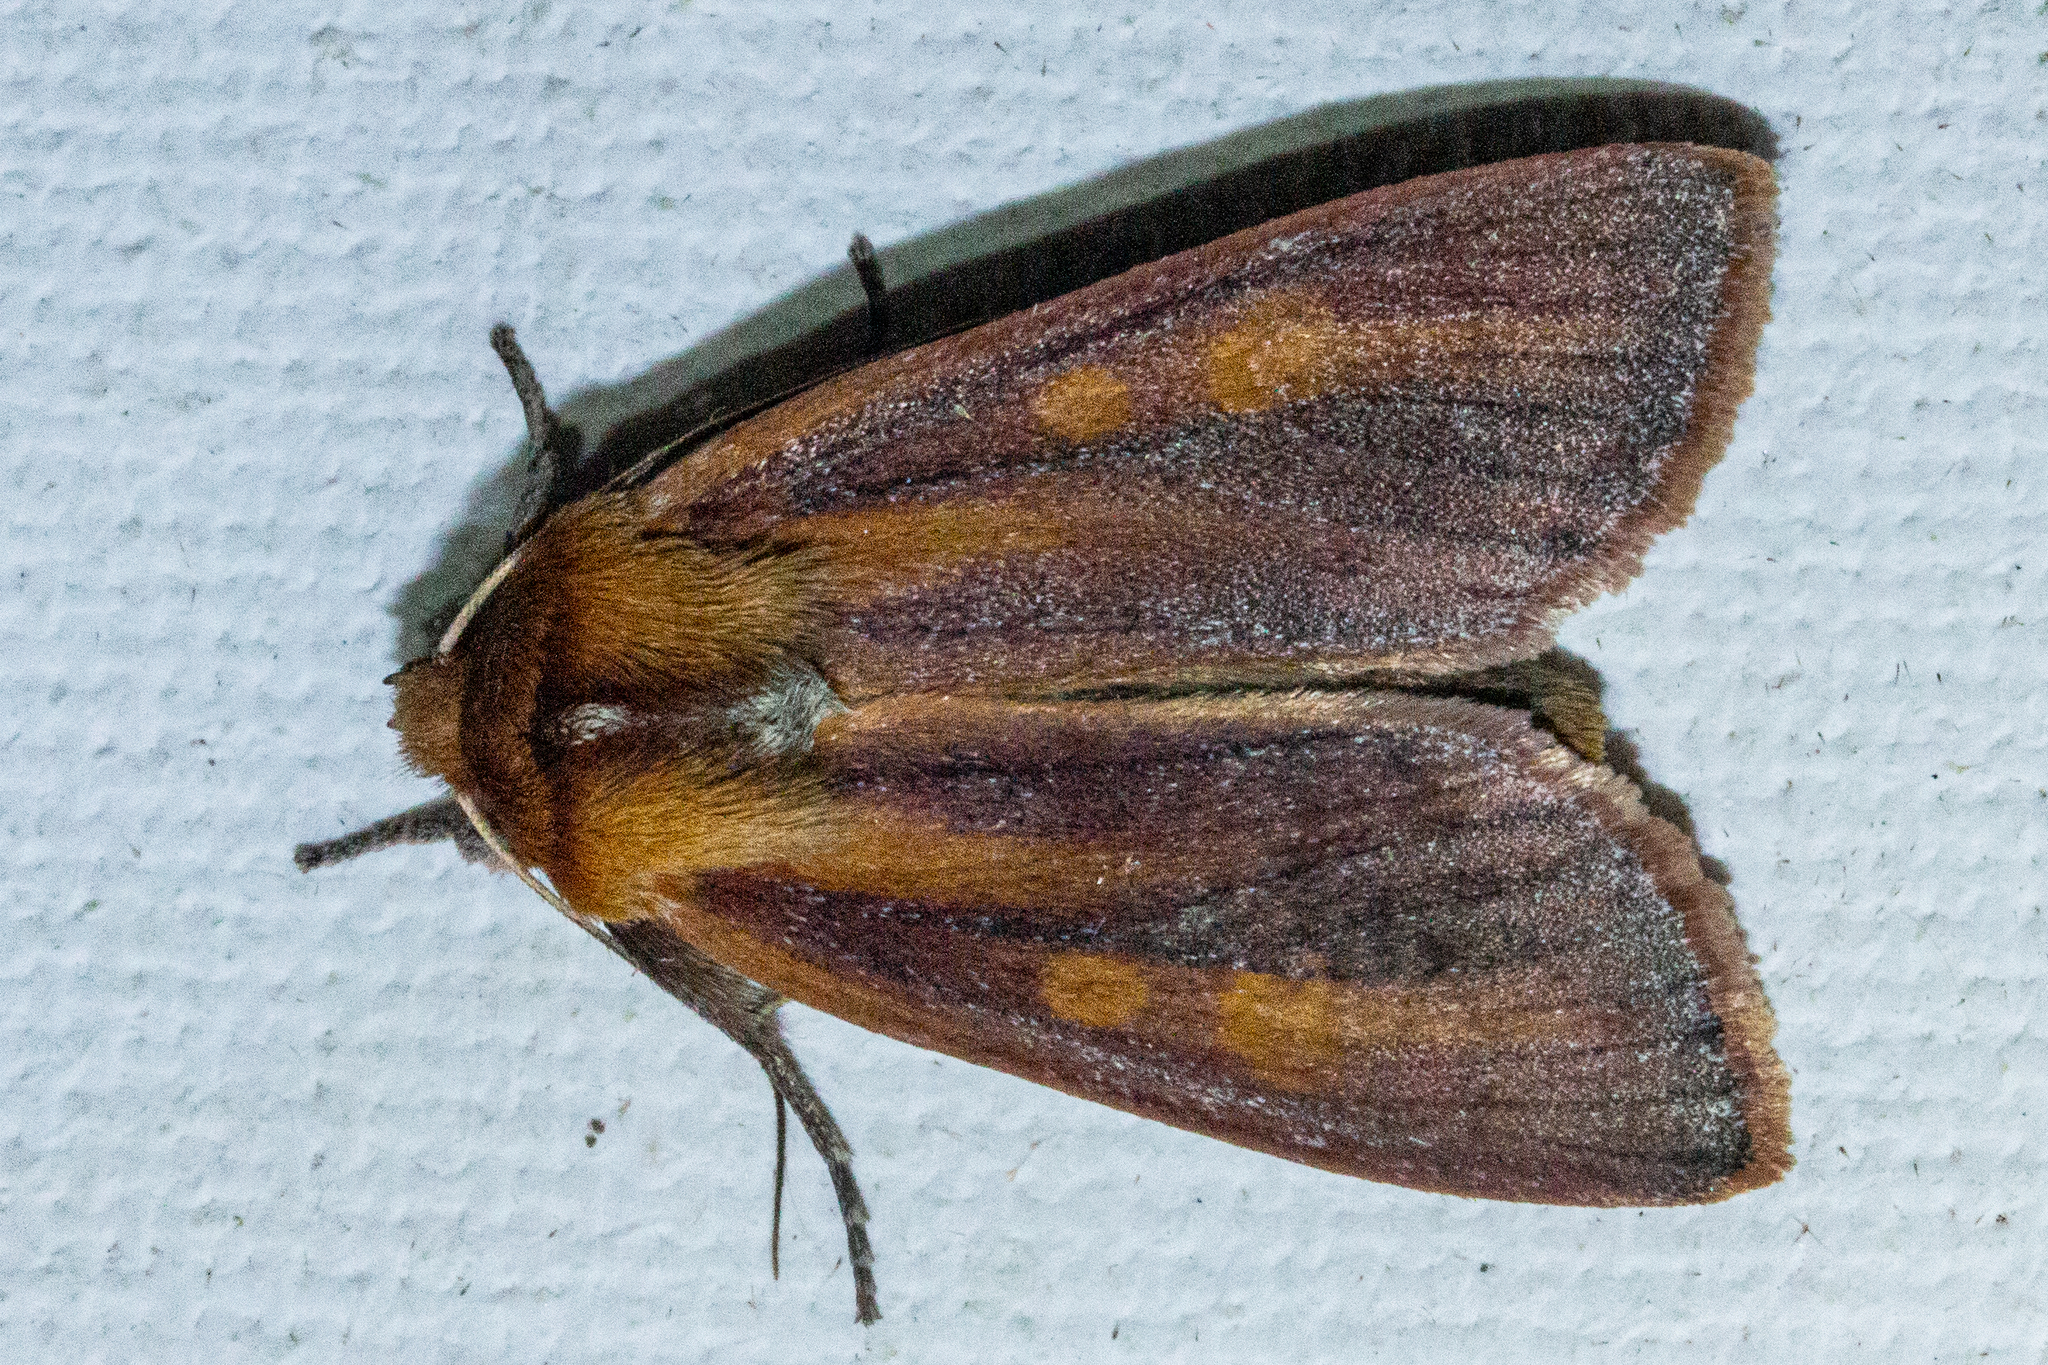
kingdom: Animalia
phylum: Arthropoda
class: Insecta
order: Lepidoptera
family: Noctuidae
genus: Ichneutica
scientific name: Ichneutica
